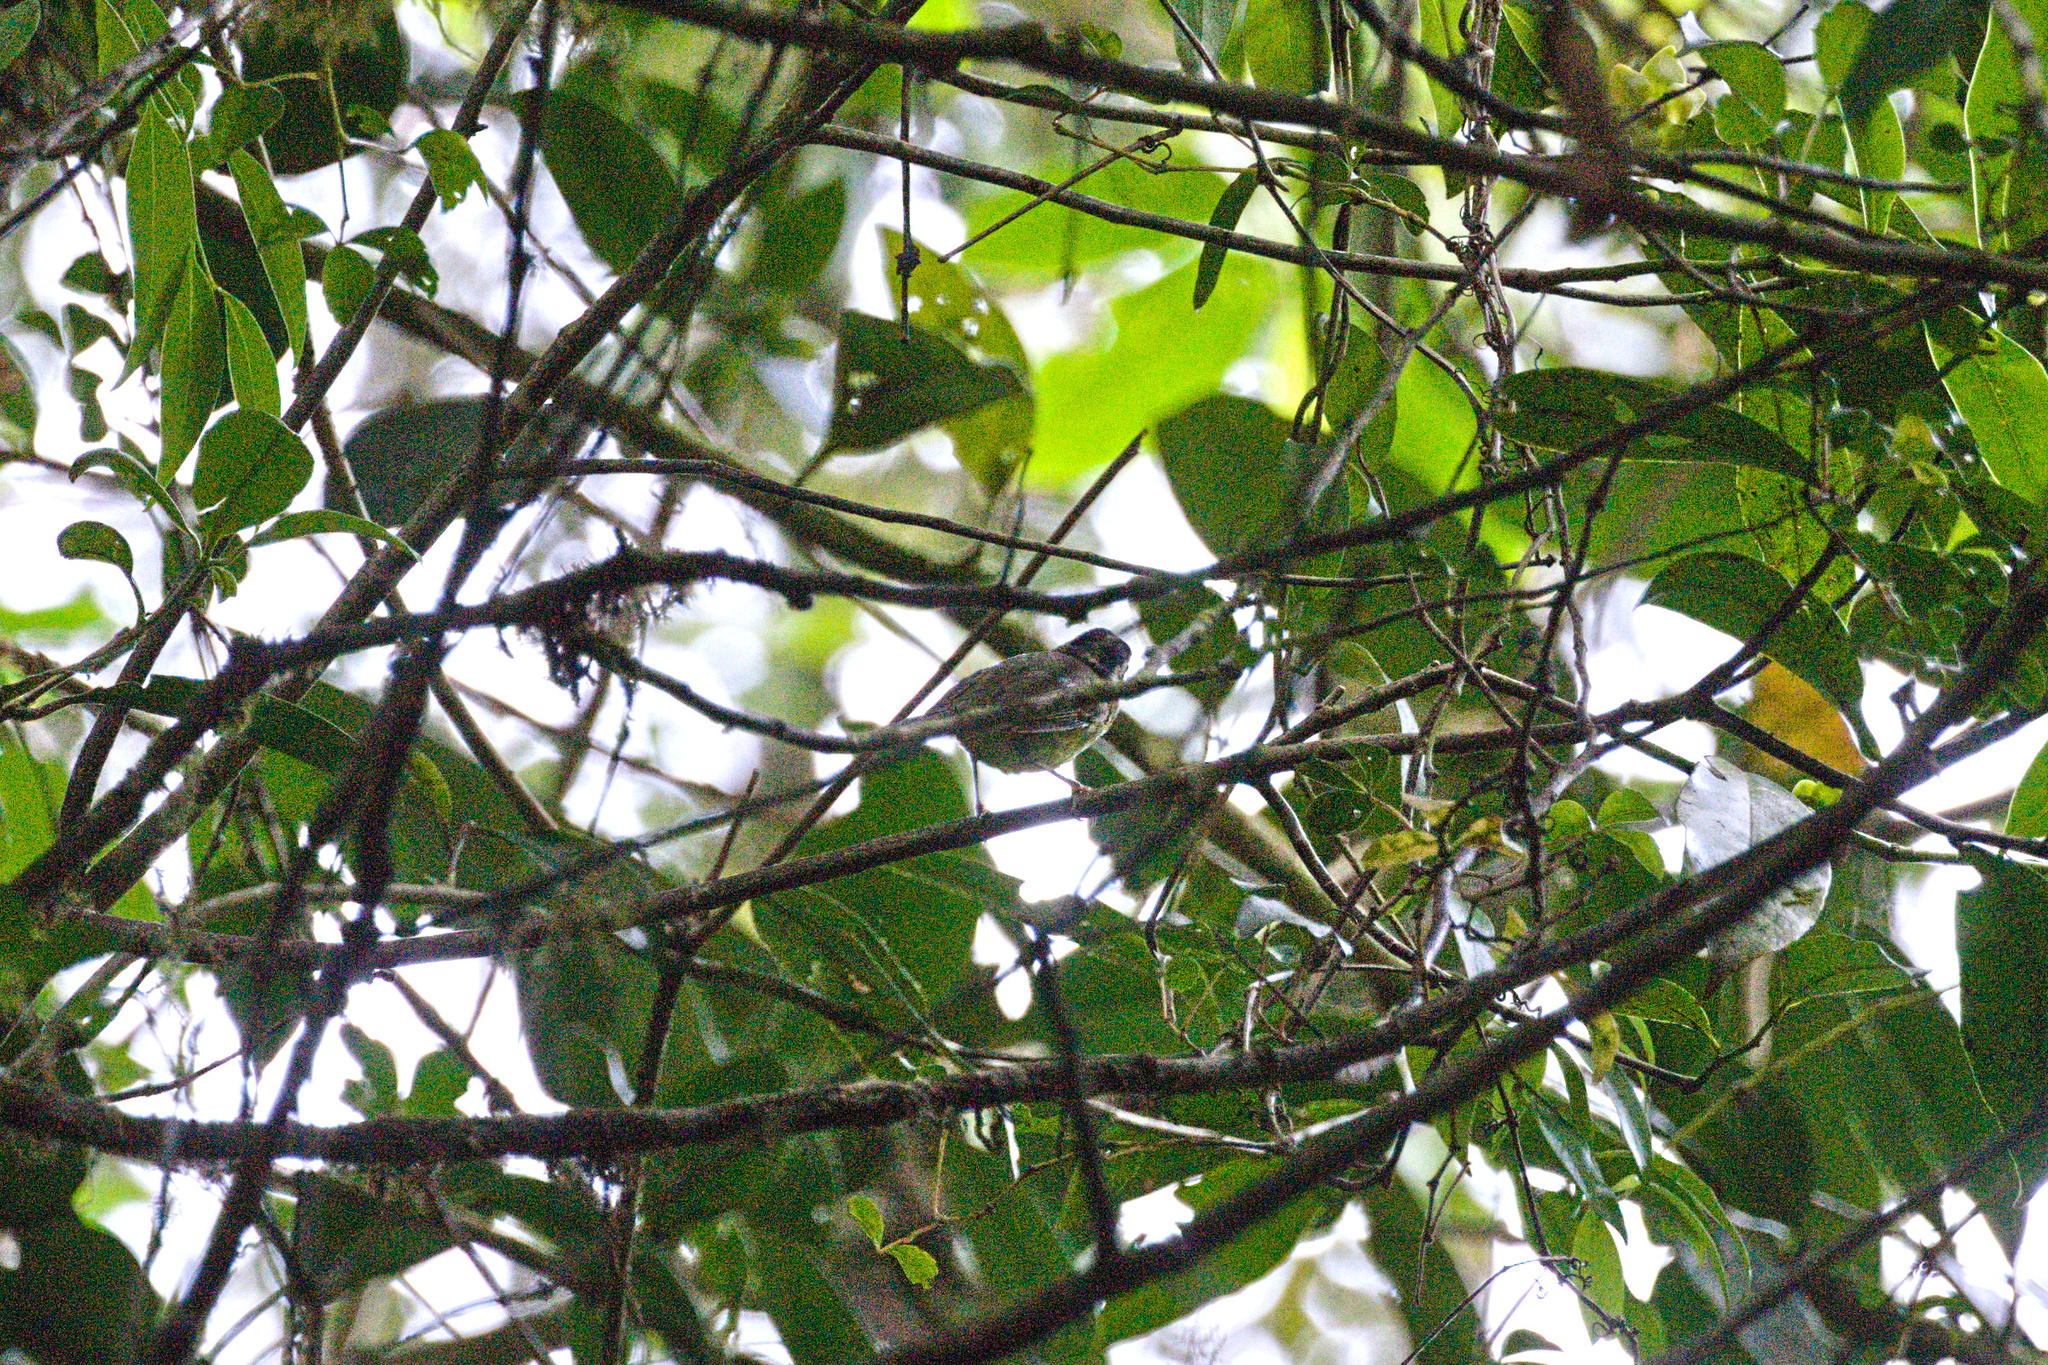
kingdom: Animalia
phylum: Chordata
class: Aves
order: Passeriformes
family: Parulidae
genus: Basileuterus
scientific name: Basileuterus melanotis
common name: Black-eared warbler
